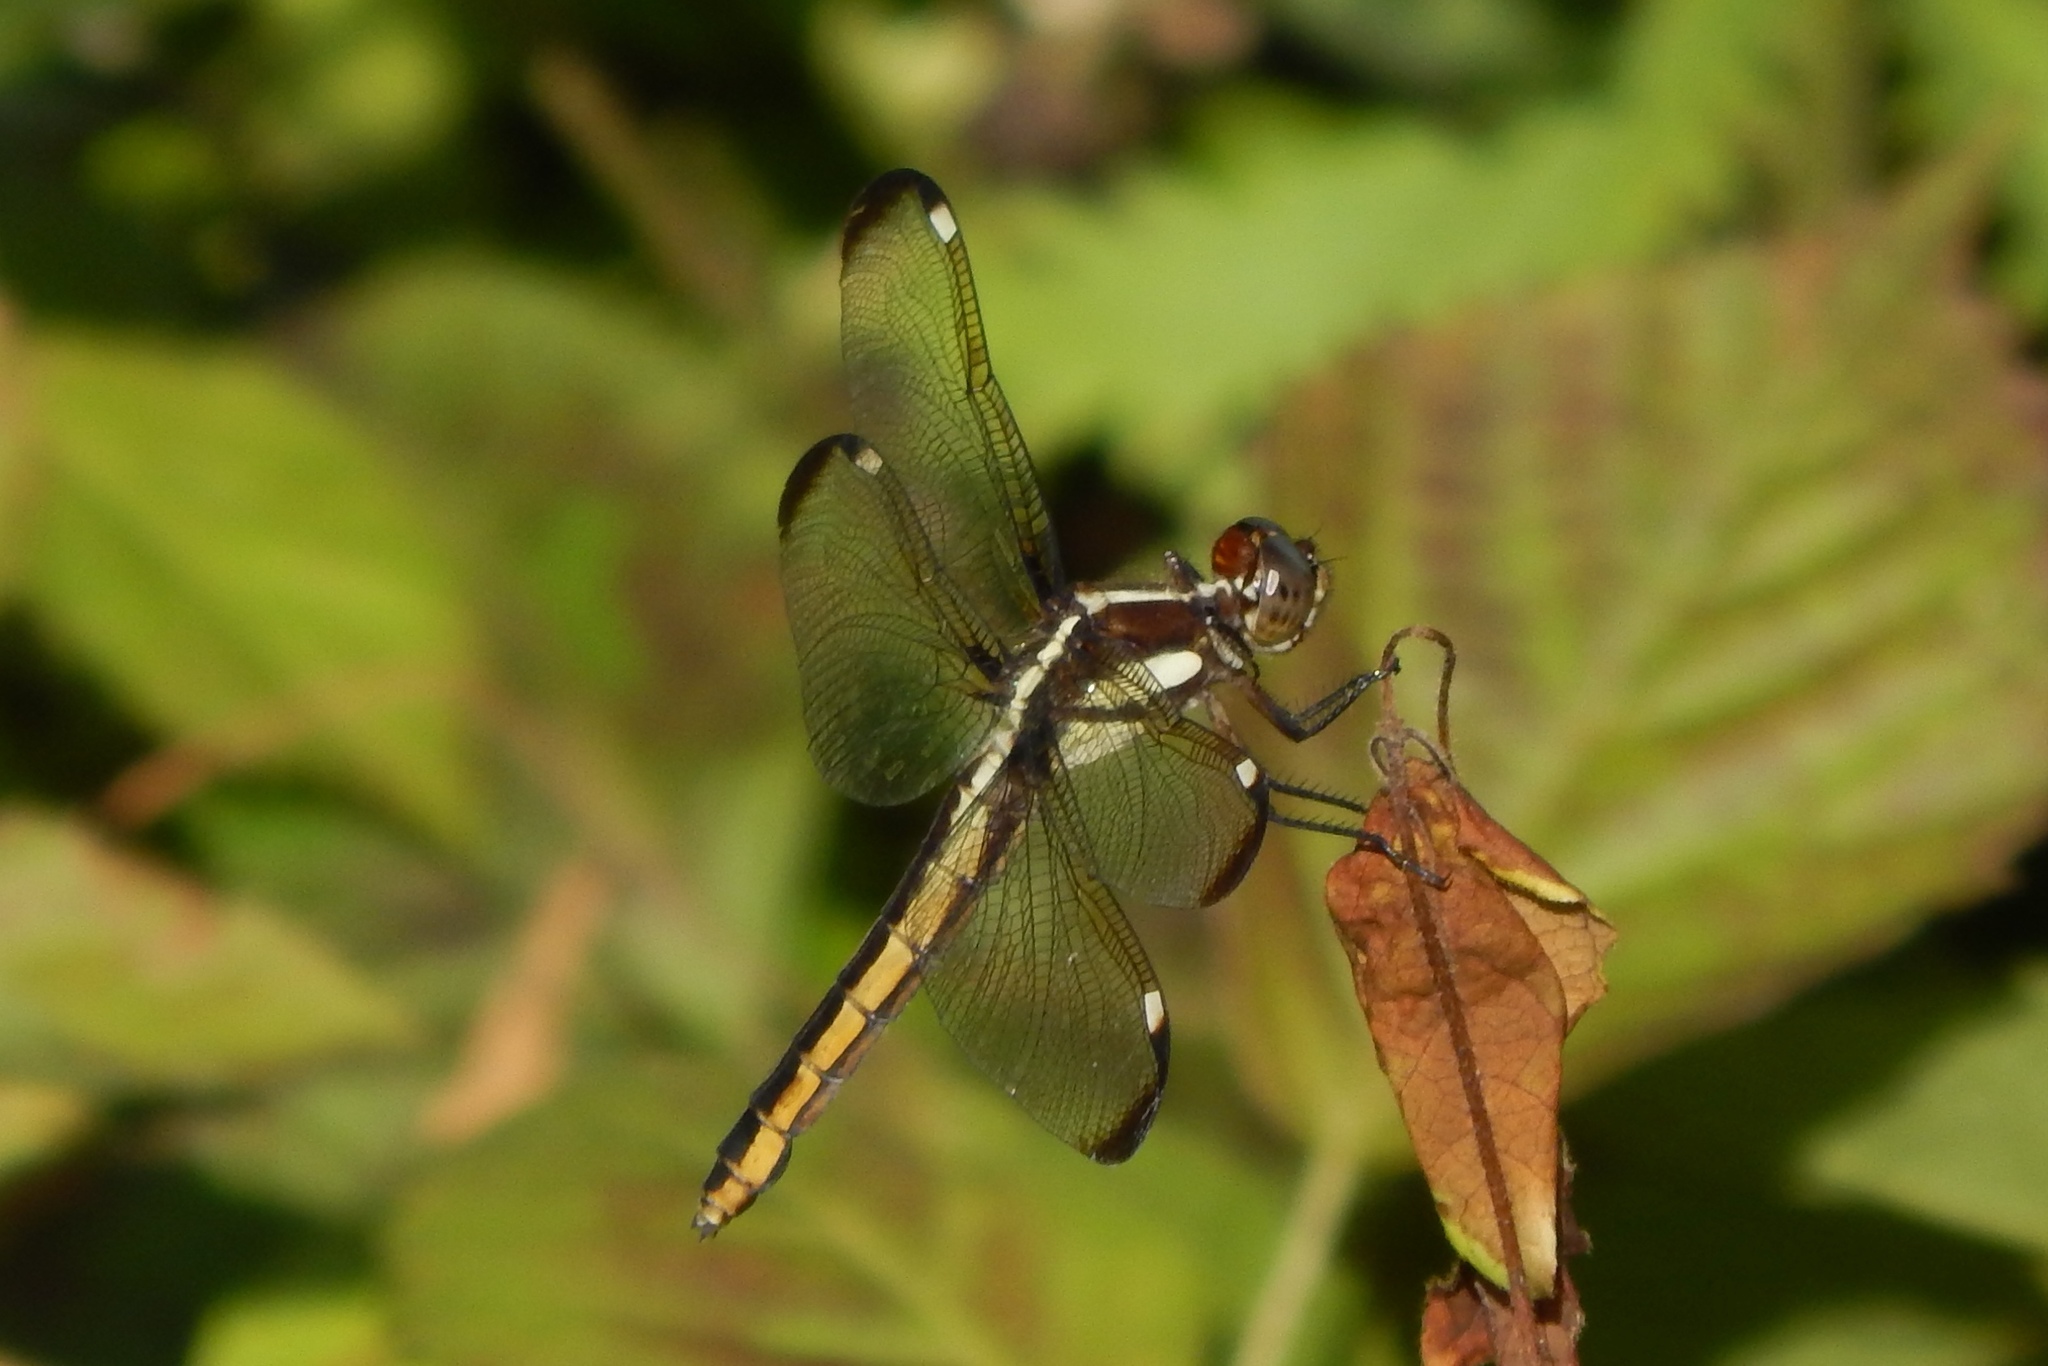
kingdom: Animalia
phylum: Arthropoda
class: Insecta
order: Odonata
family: Libellulidae
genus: Libellula
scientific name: Libellula cyanea
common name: Spangled skimmer
